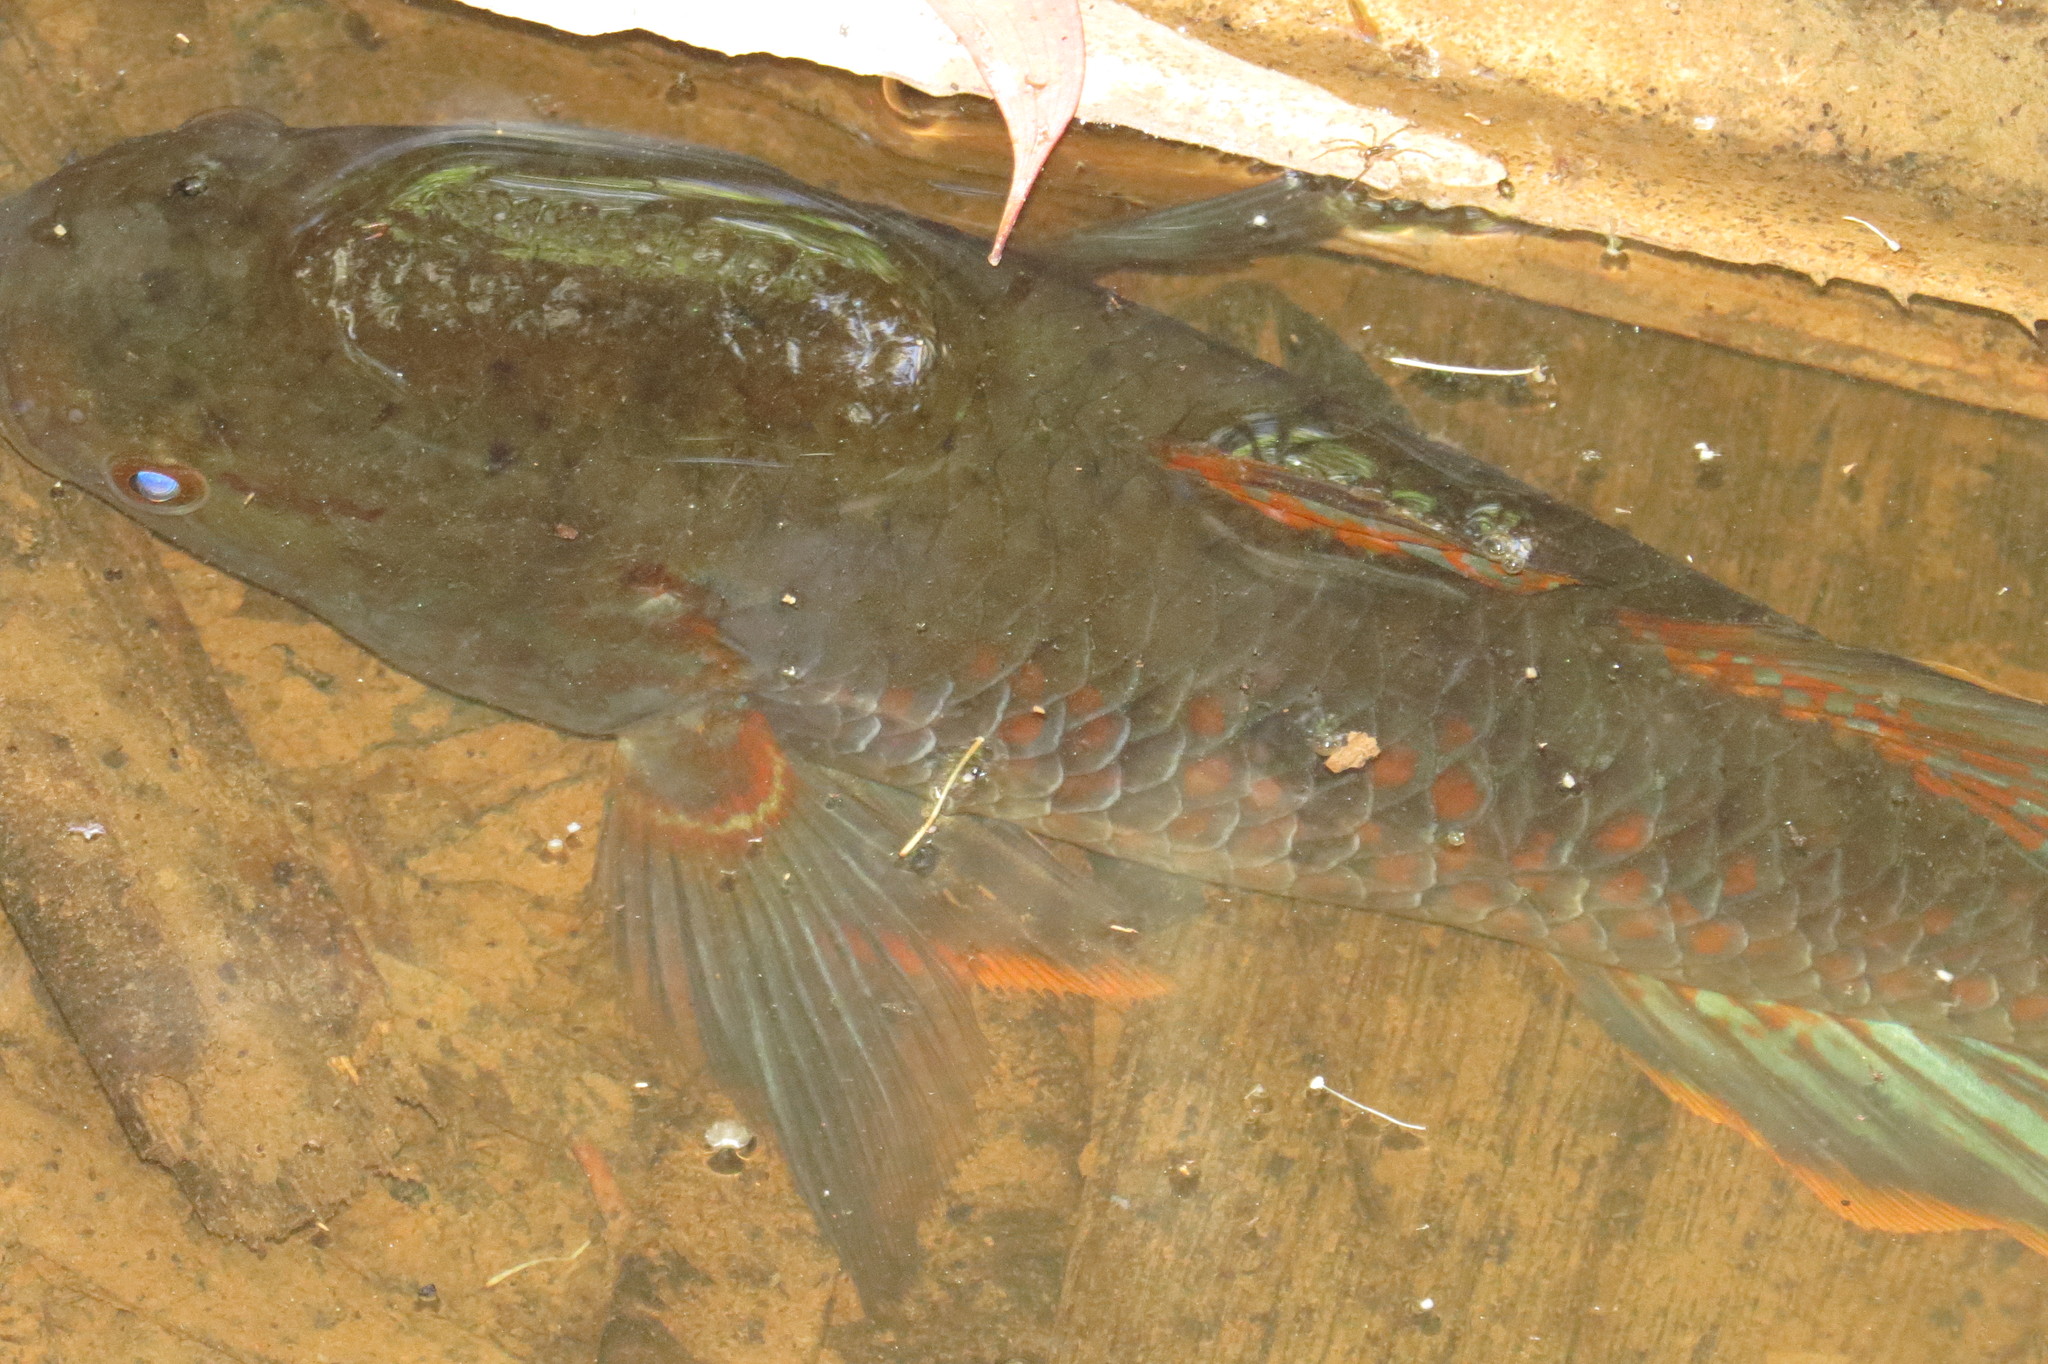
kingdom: Animalia
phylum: Chordata
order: Perciformes
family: Eleotridae
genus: Giuris
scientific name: Giuris
